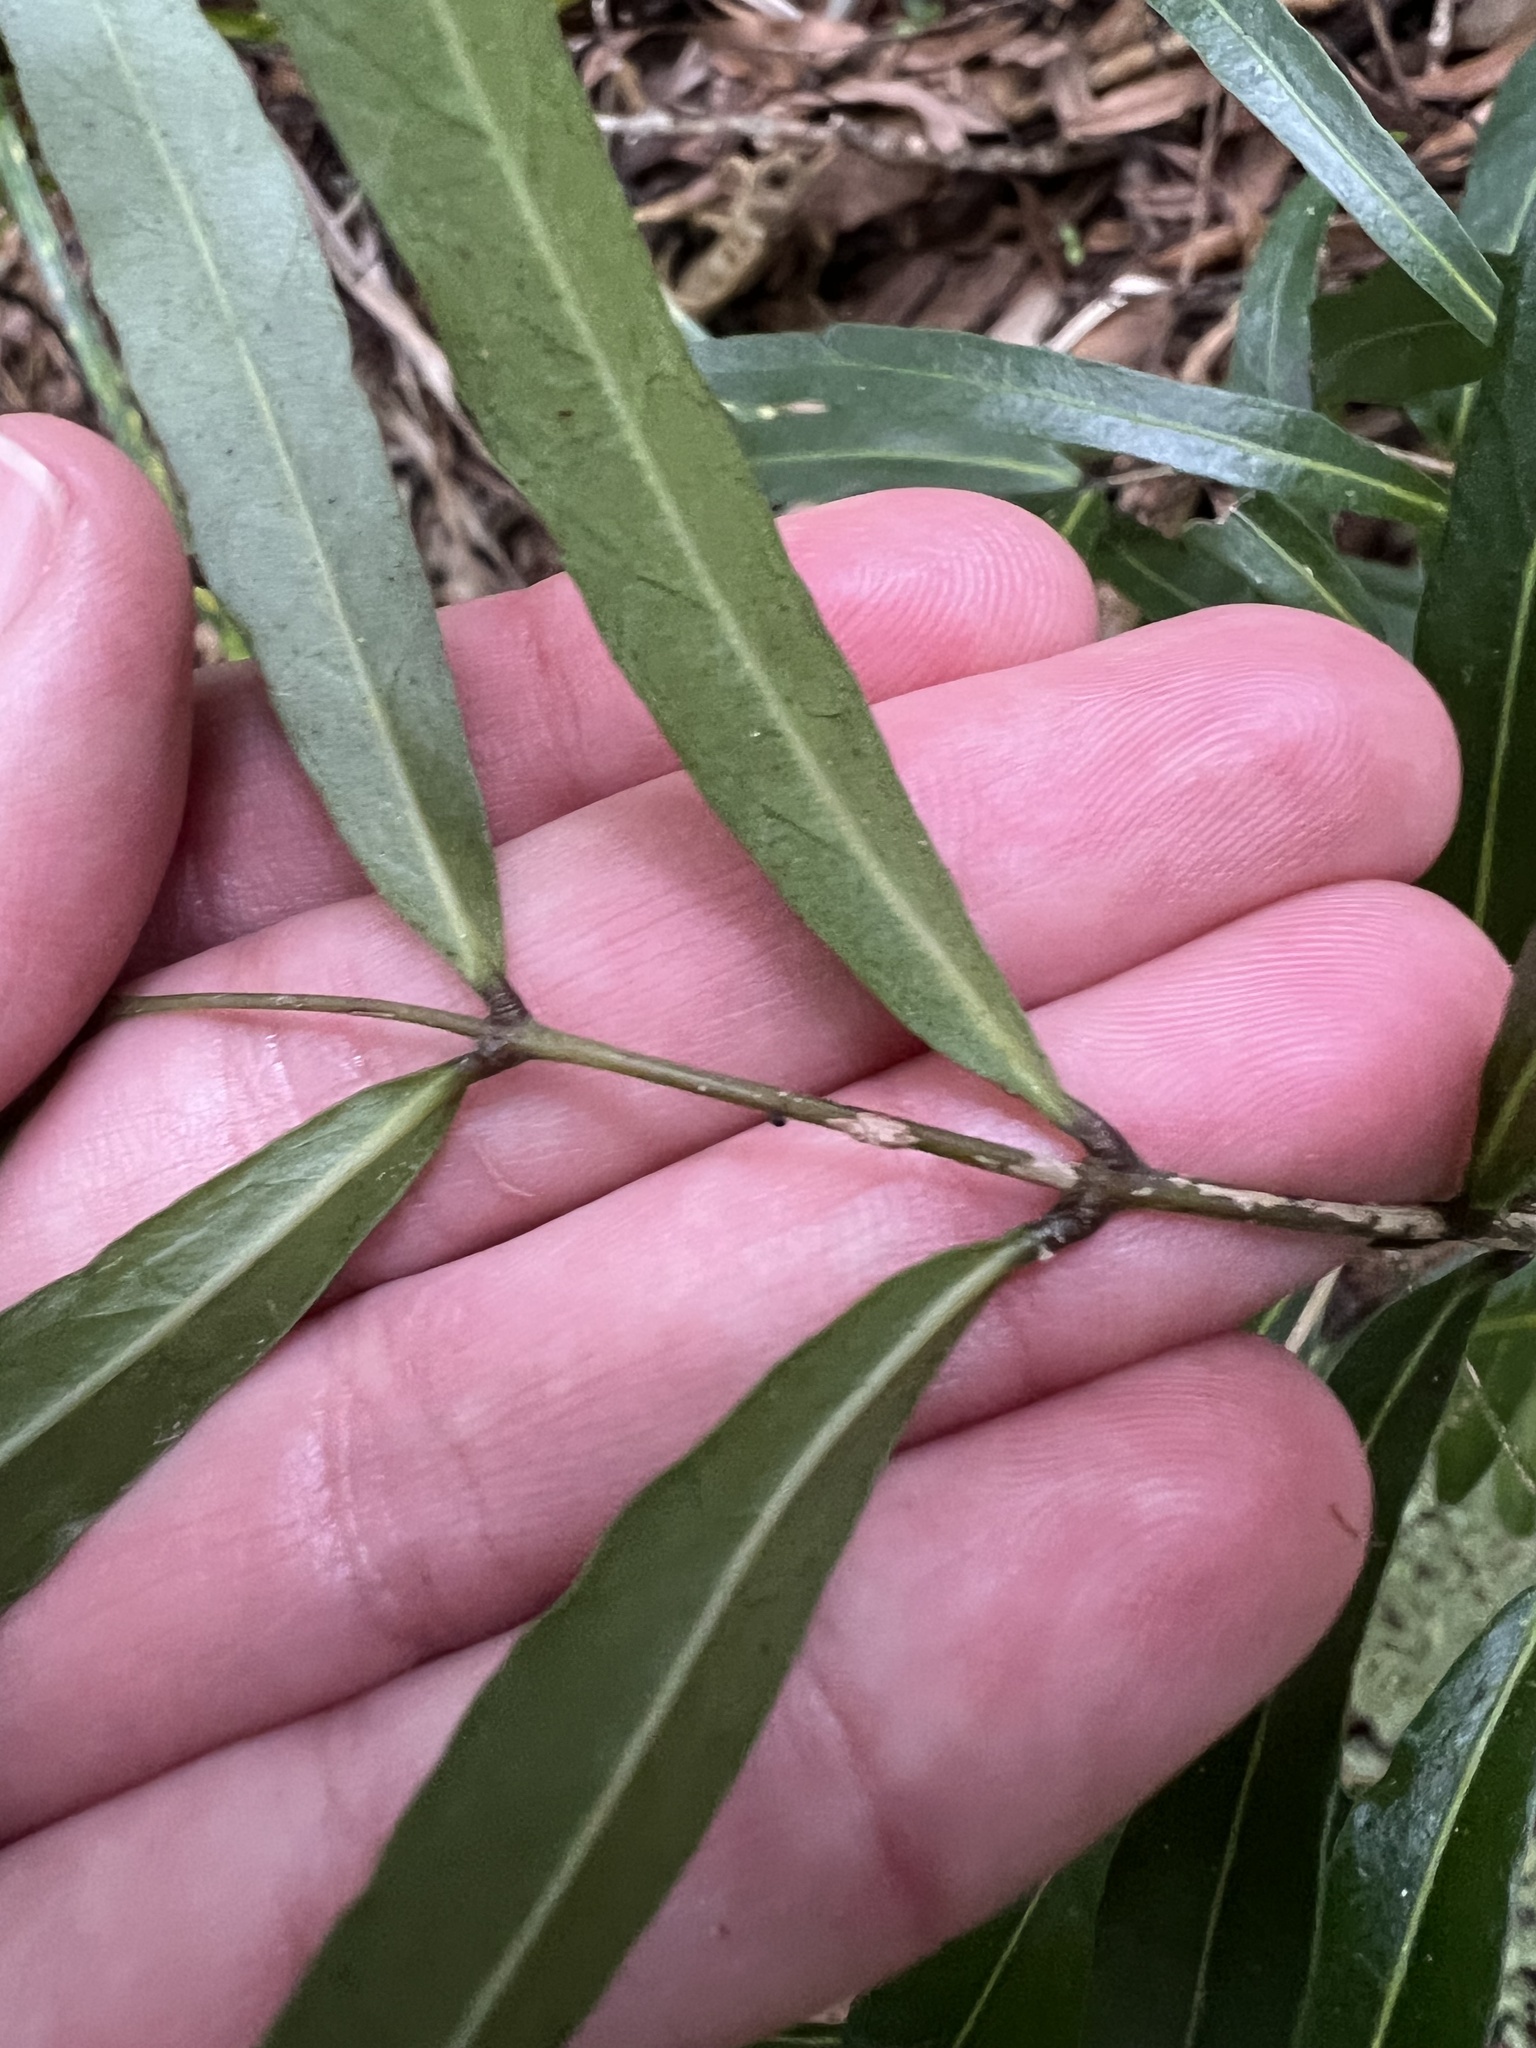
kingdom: Plantae
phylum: Tracheophyta
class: Magnoliopsida
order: Santalales
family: Nanodeaceae
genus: Mida
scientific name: Mida salicifolia
